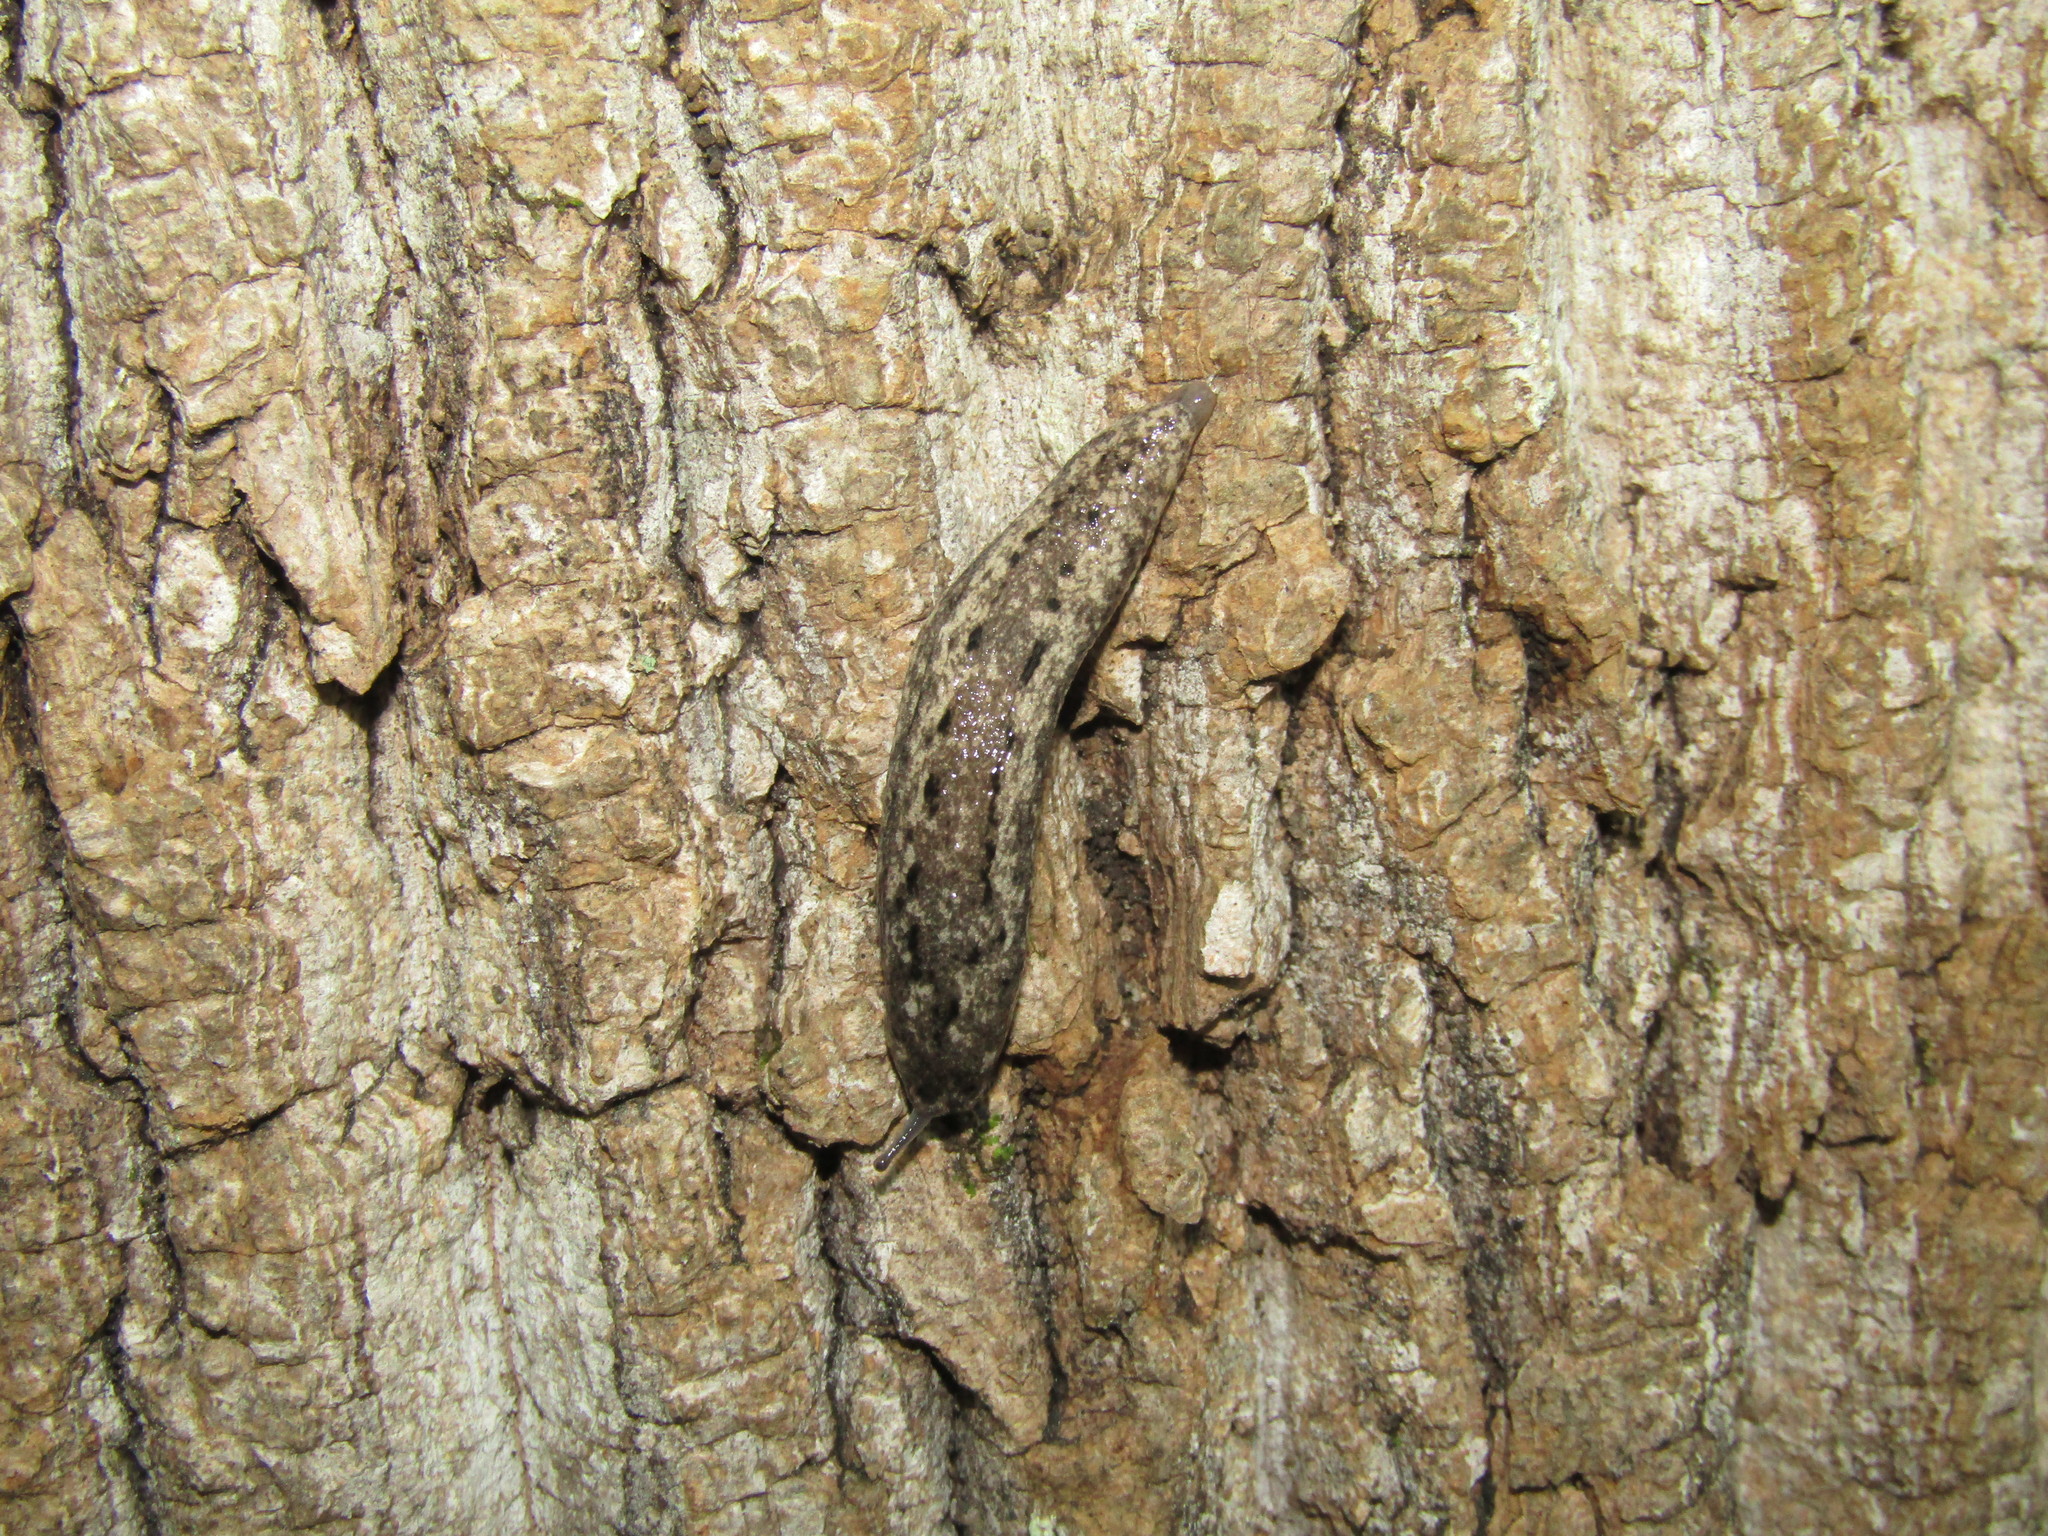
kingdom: Animalia
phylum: Mollusca
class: Gastropoda
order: Stylommatophora
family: Philomycidae
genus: Philomycus
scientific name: Philomycus carolinianus
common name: Carolina mantleslug
